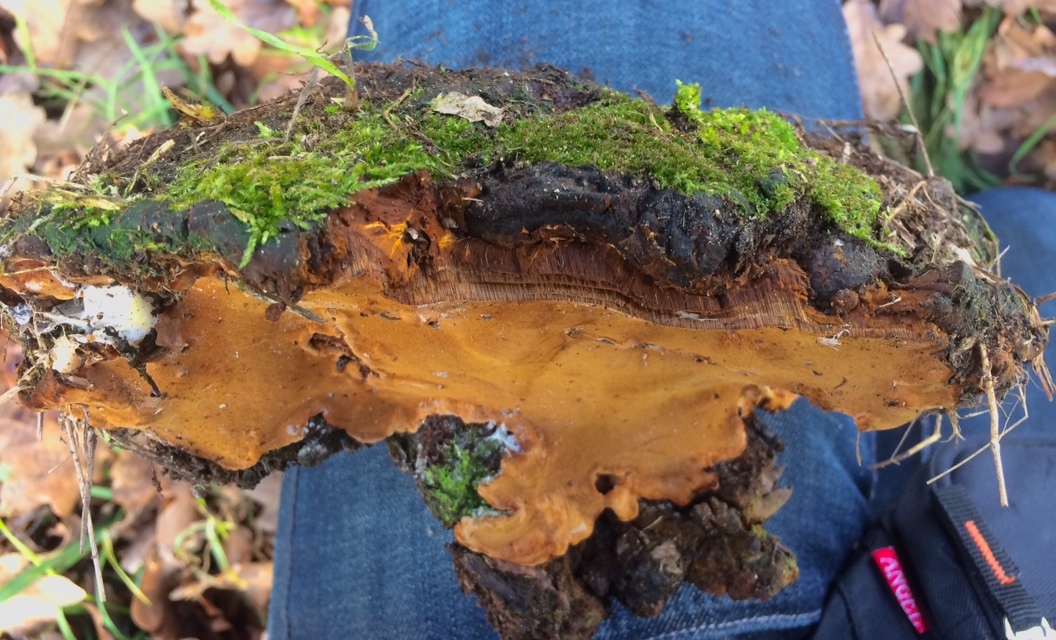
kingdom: Fungi
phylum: Basidiomycota
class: Agaricomycetes
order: Hymenochaetales
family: Hymenochaetaceae
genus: Fuscoporia
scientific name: Fuscoporia torulosa
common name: Tufted bracket
